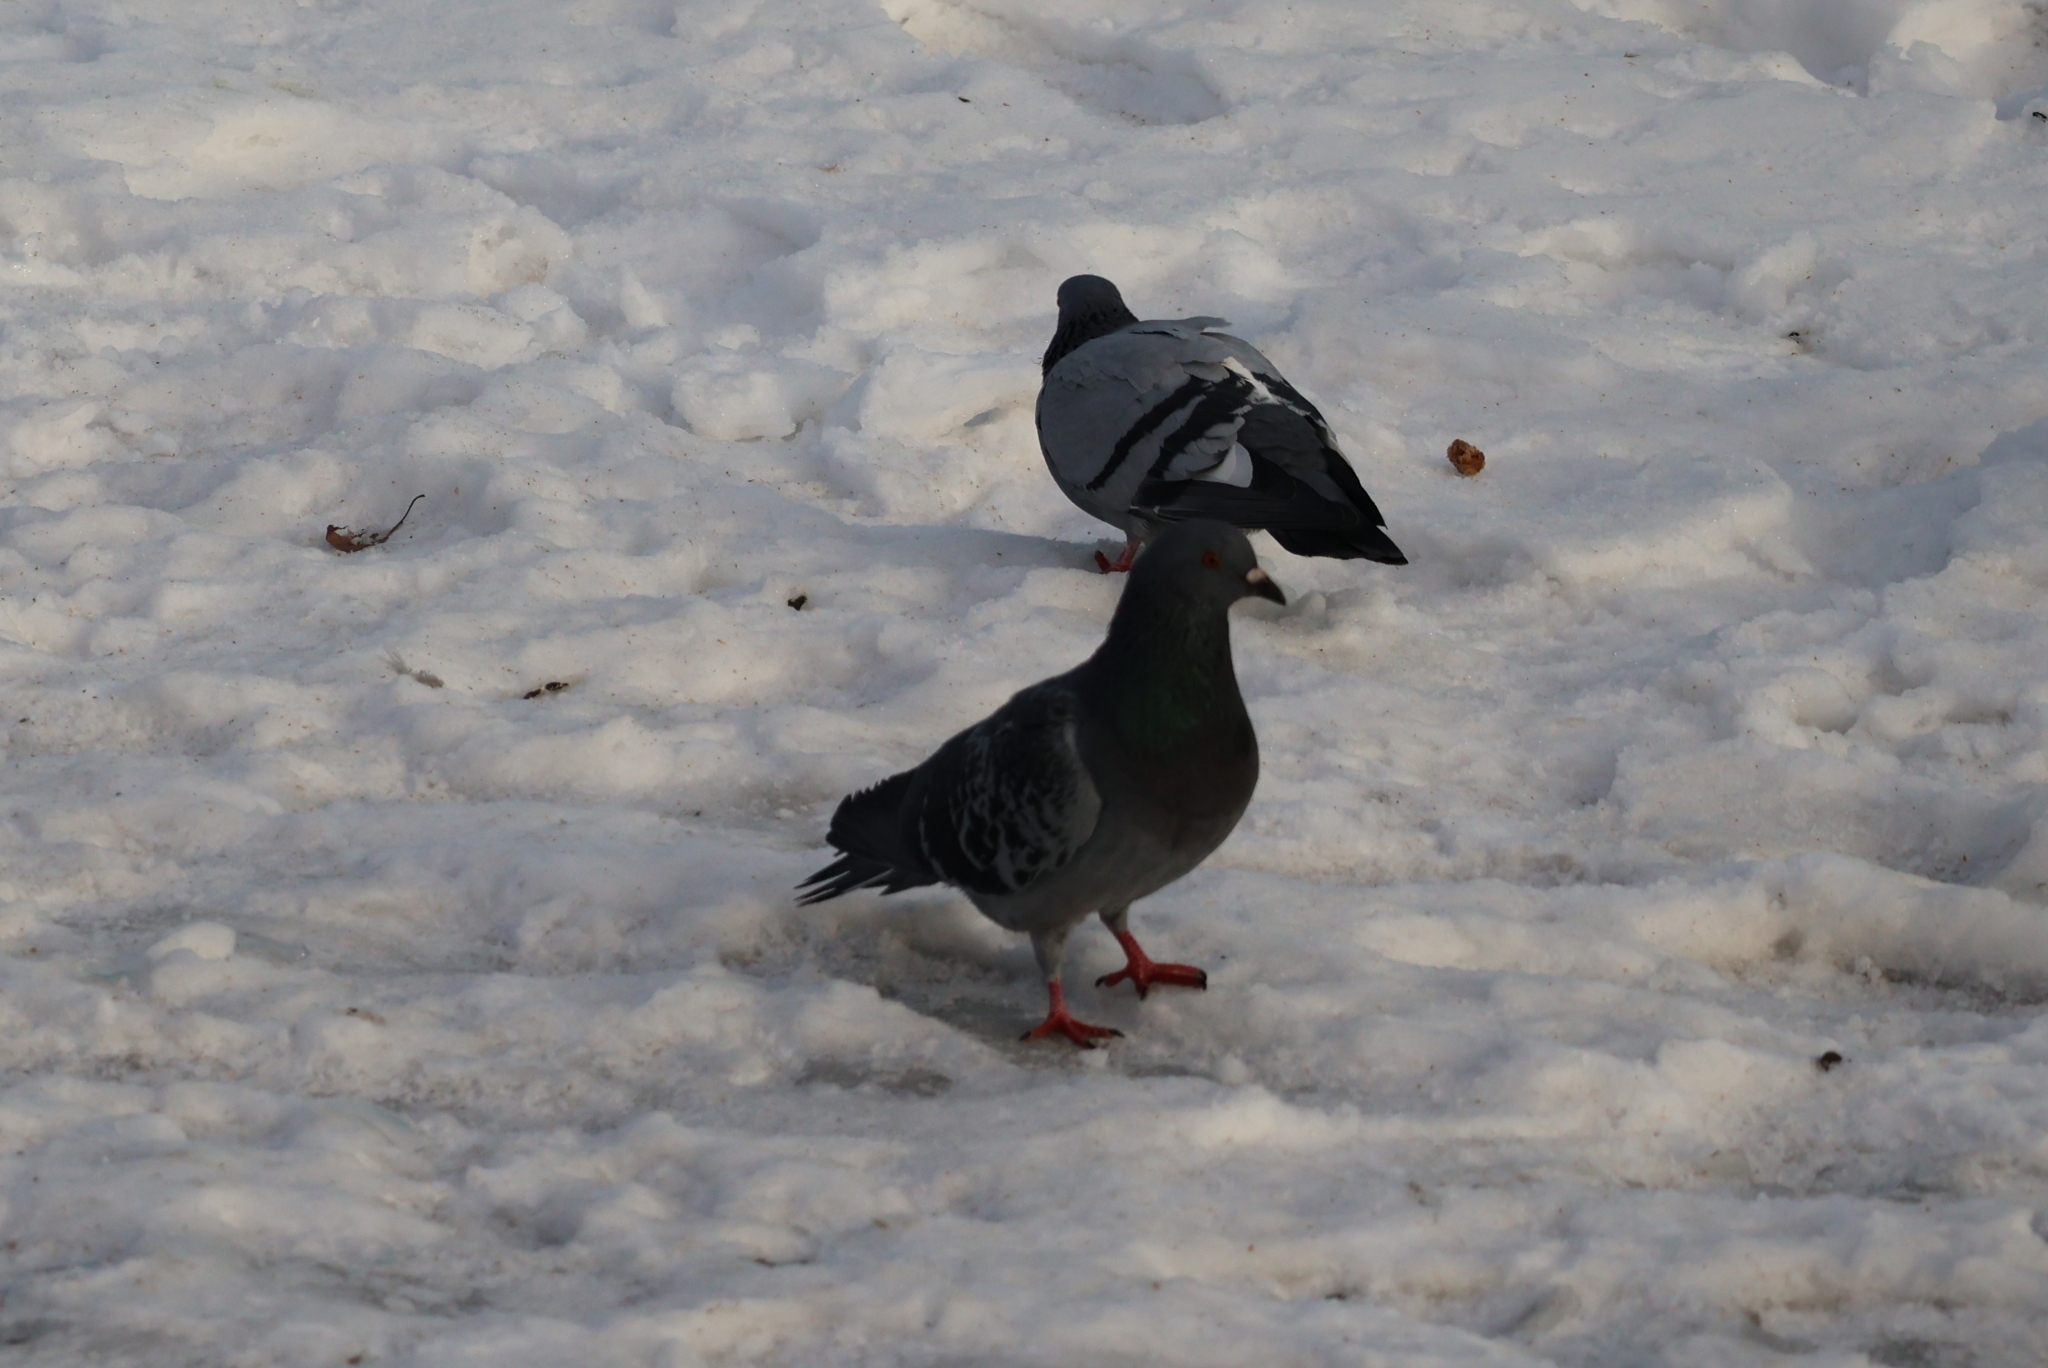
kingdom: Animalia
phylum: Chordata
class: Aves
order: Columbiformes
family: Columbidae
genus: Columba
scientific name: Columba livia
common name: Rock pigeon
